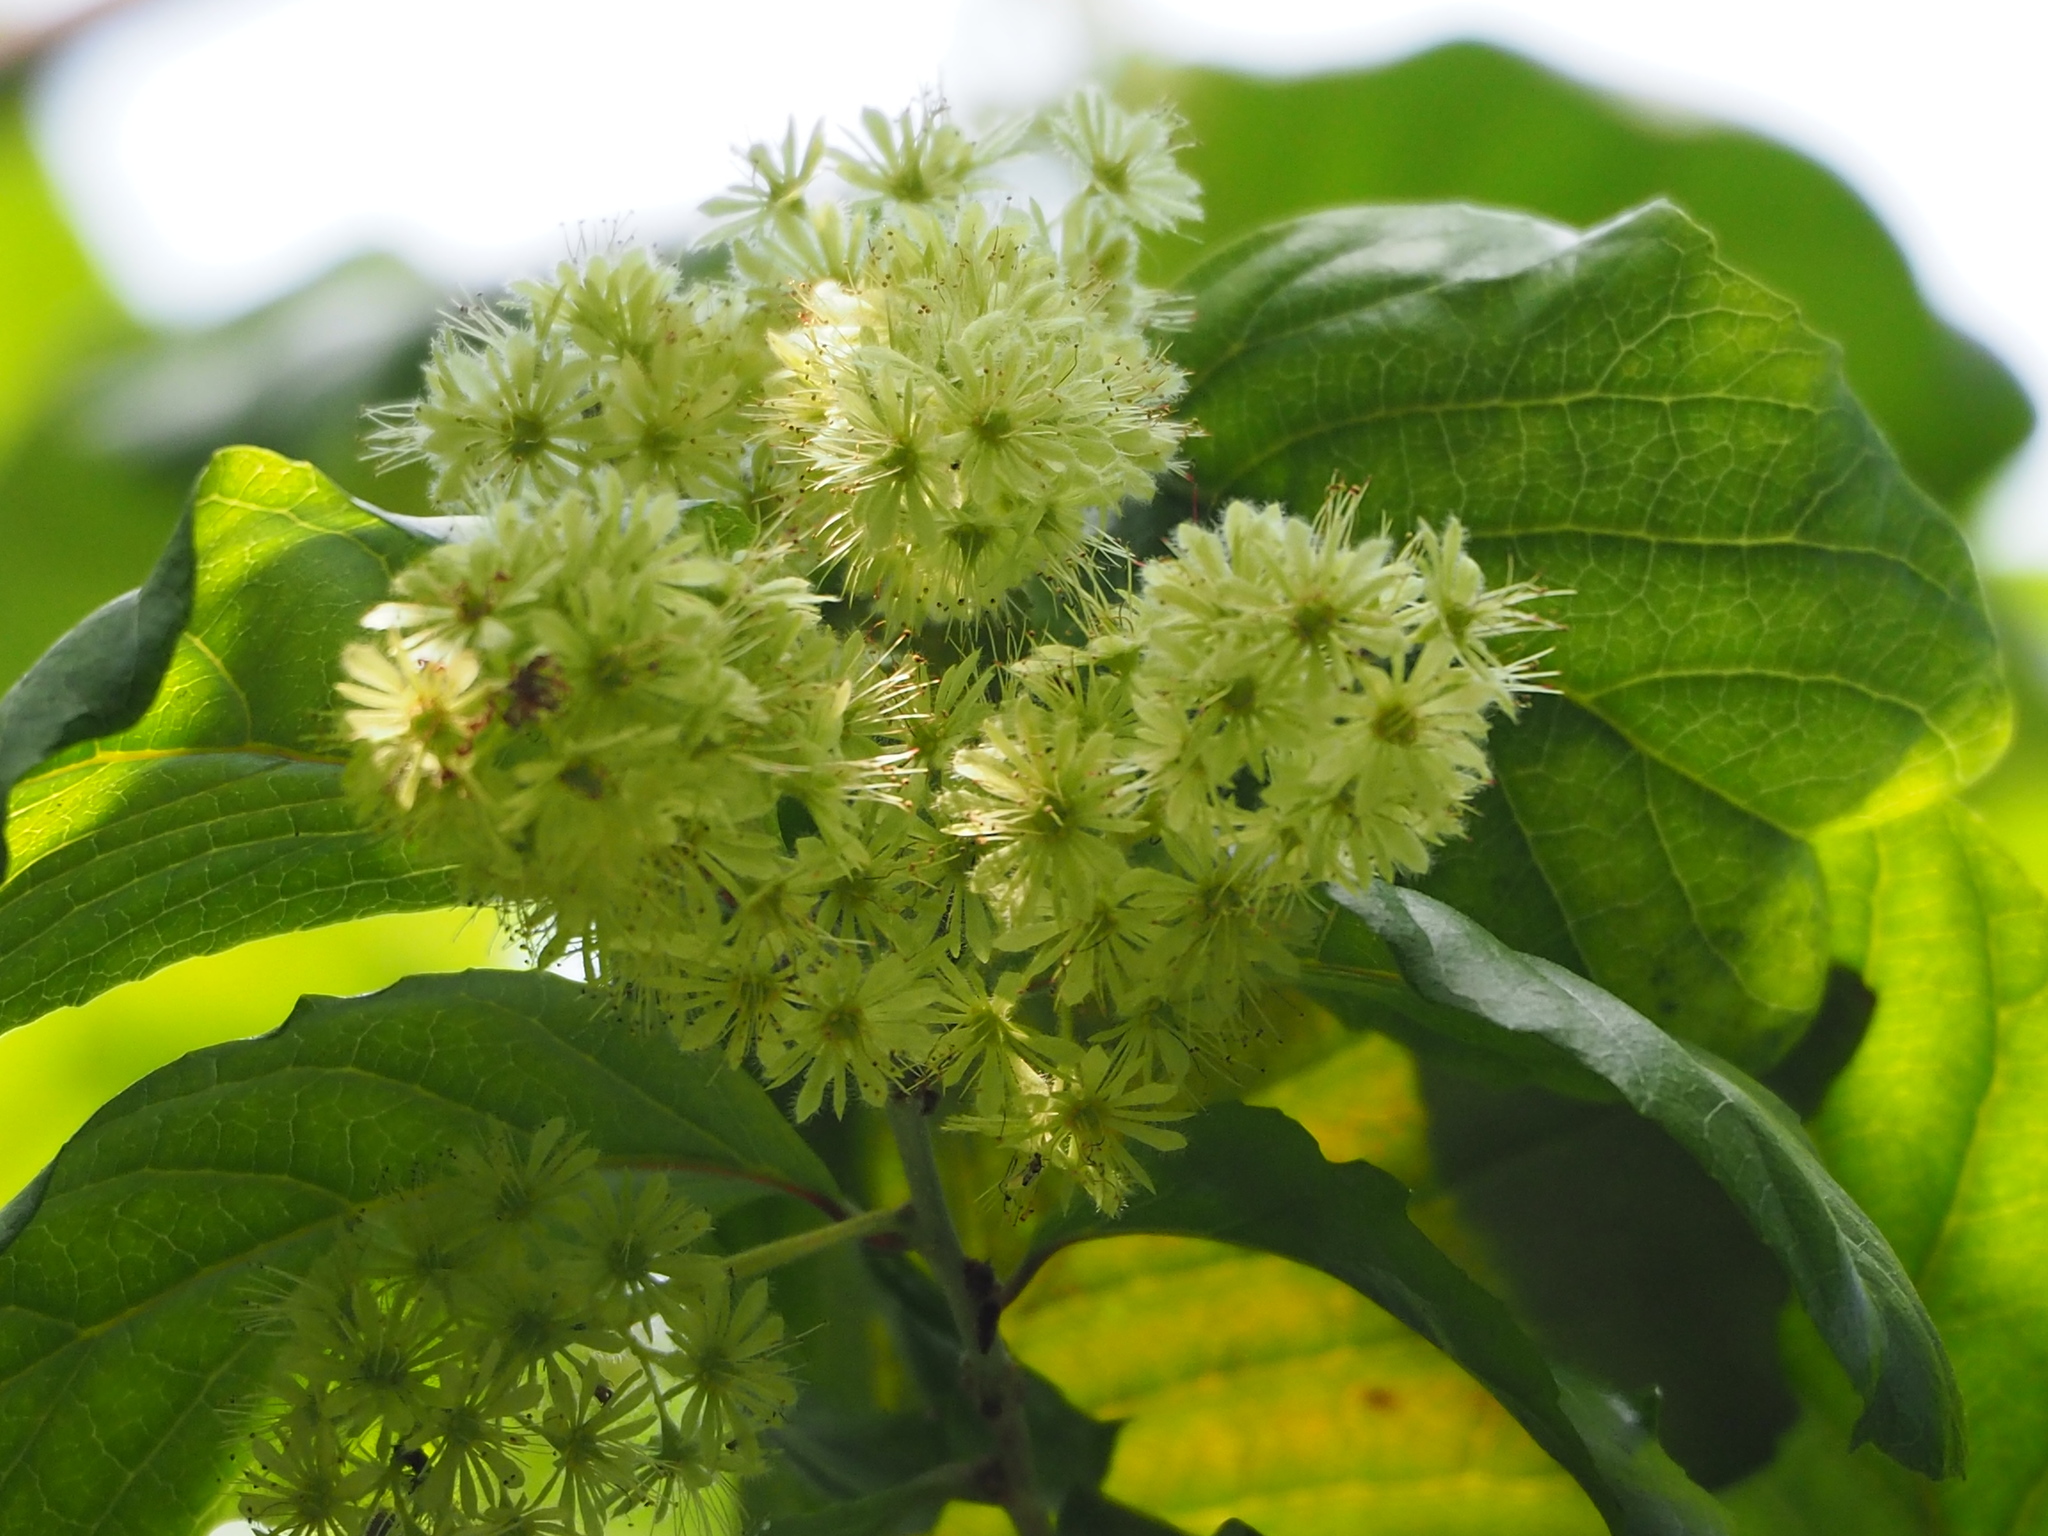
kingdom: Plantae
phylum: Tracheophyta
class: Magnoliopsida
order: Malpighiales
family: Salicaceae
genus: Homalium
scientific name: Homalium cochinchinensis
